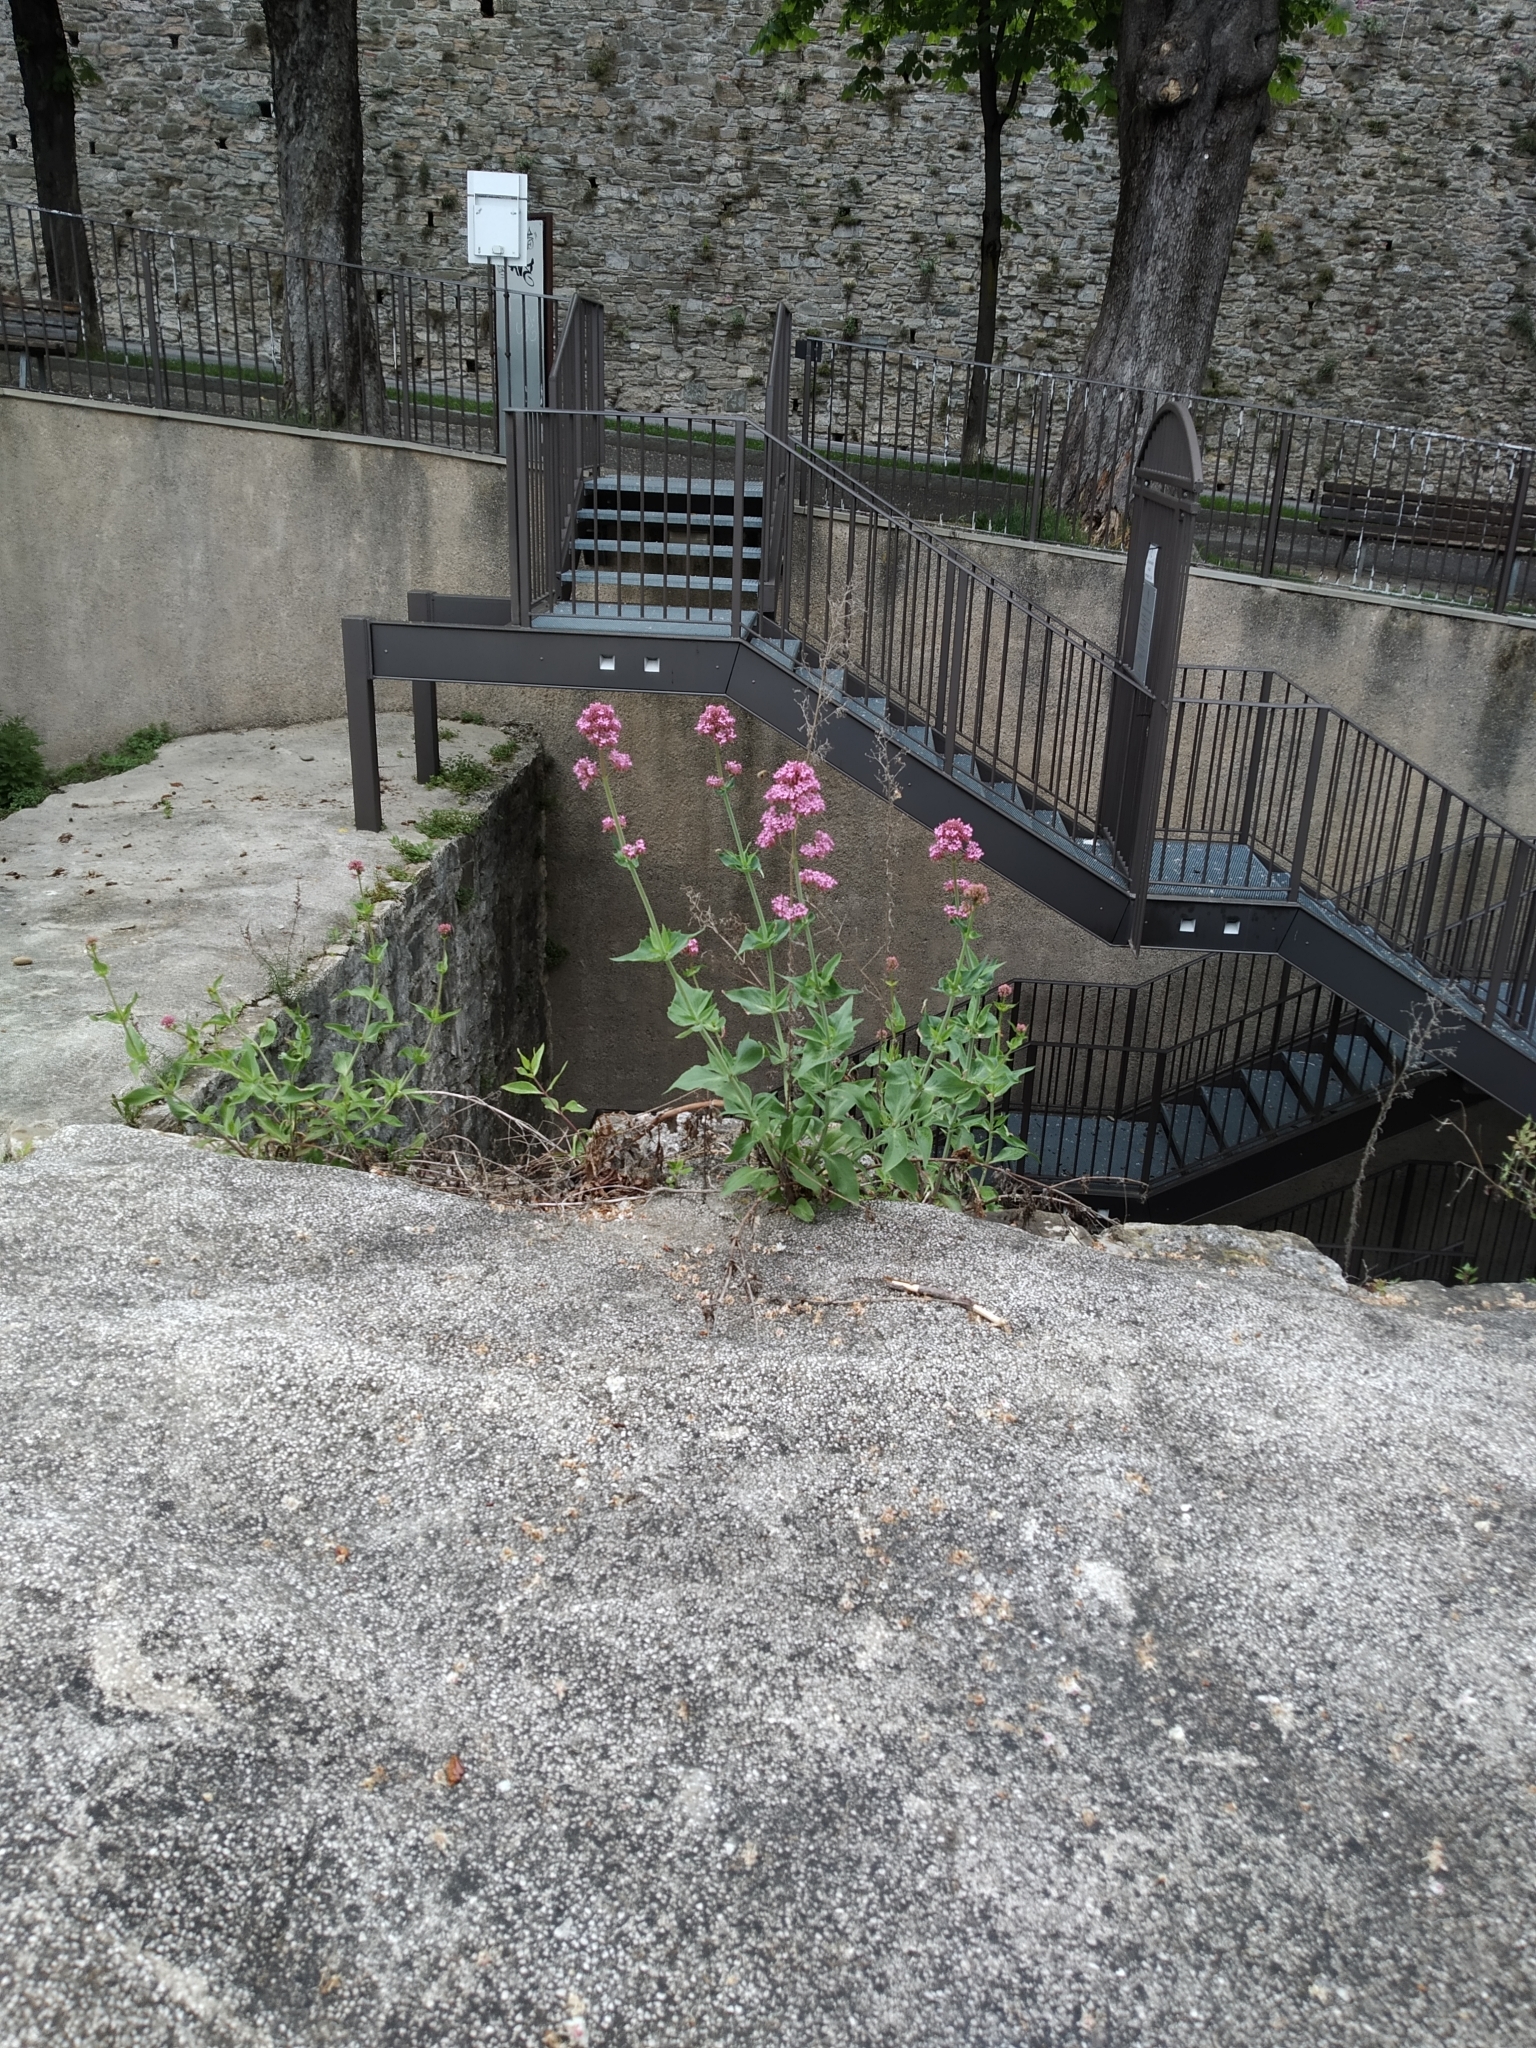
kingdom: Plantae
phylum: Tracheophyta
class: Magnoliopsida
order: Dipsacales
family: Caprifoliaceae
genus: Centranthus
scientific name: Centranthus ruber
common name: Red valerian
